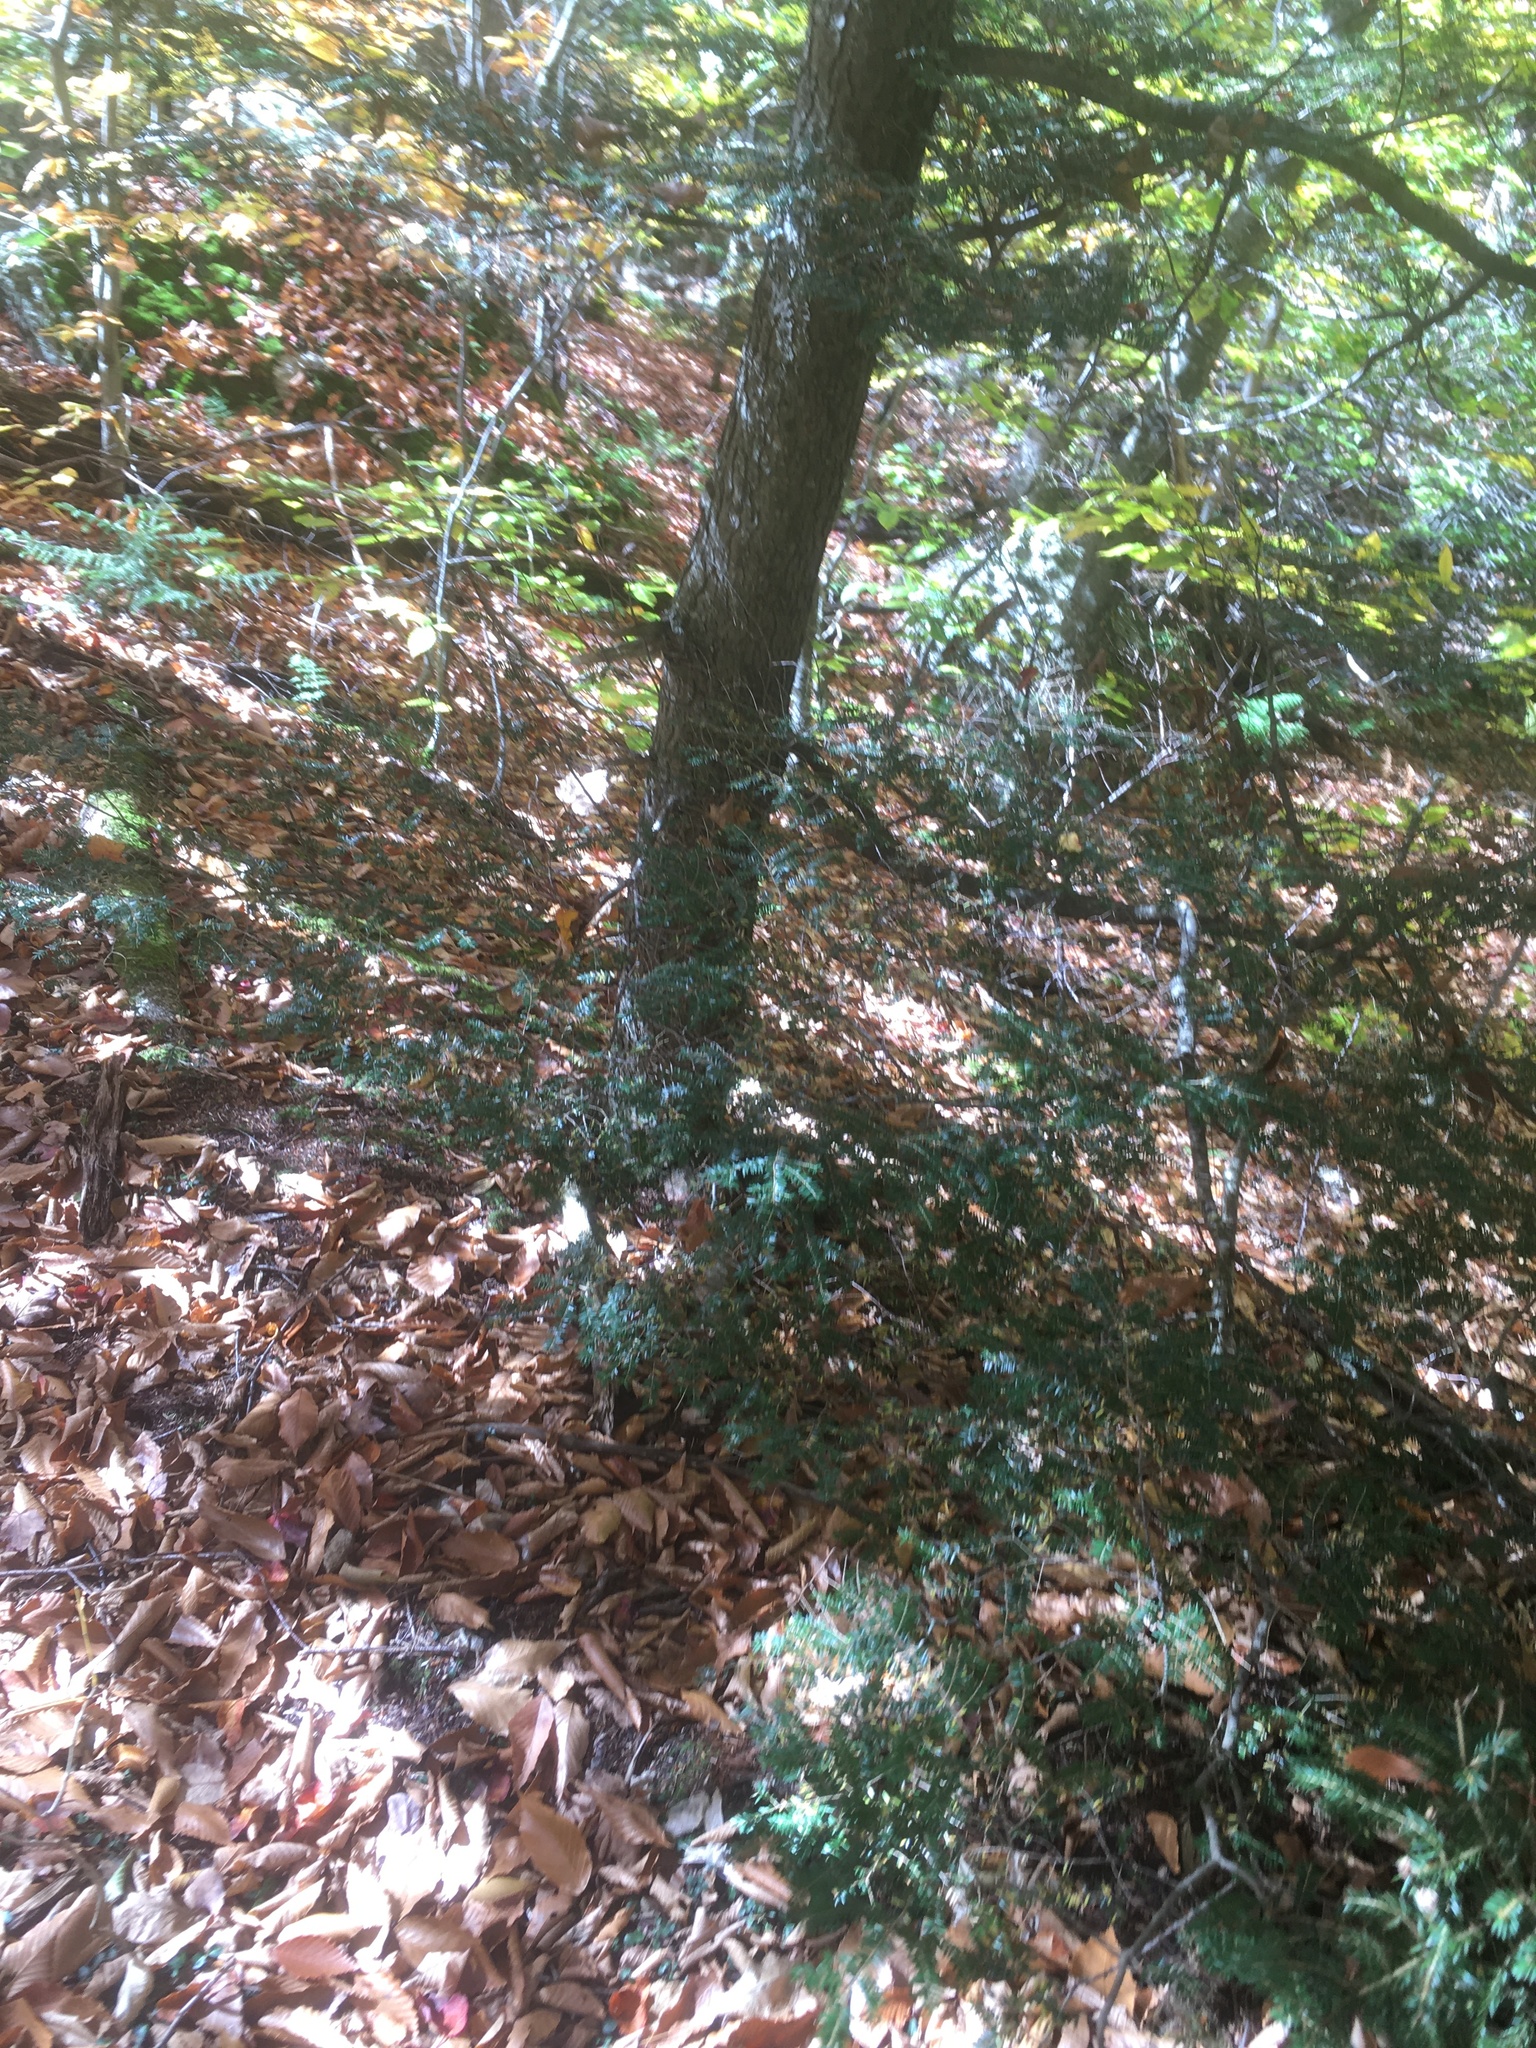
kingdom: Plantae
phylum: Tracheophyta
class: Pinopsida
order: Pinales
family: Pinaceae
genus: Tsuga
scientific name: Tsuga canadensis
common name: Eastern hemlock
